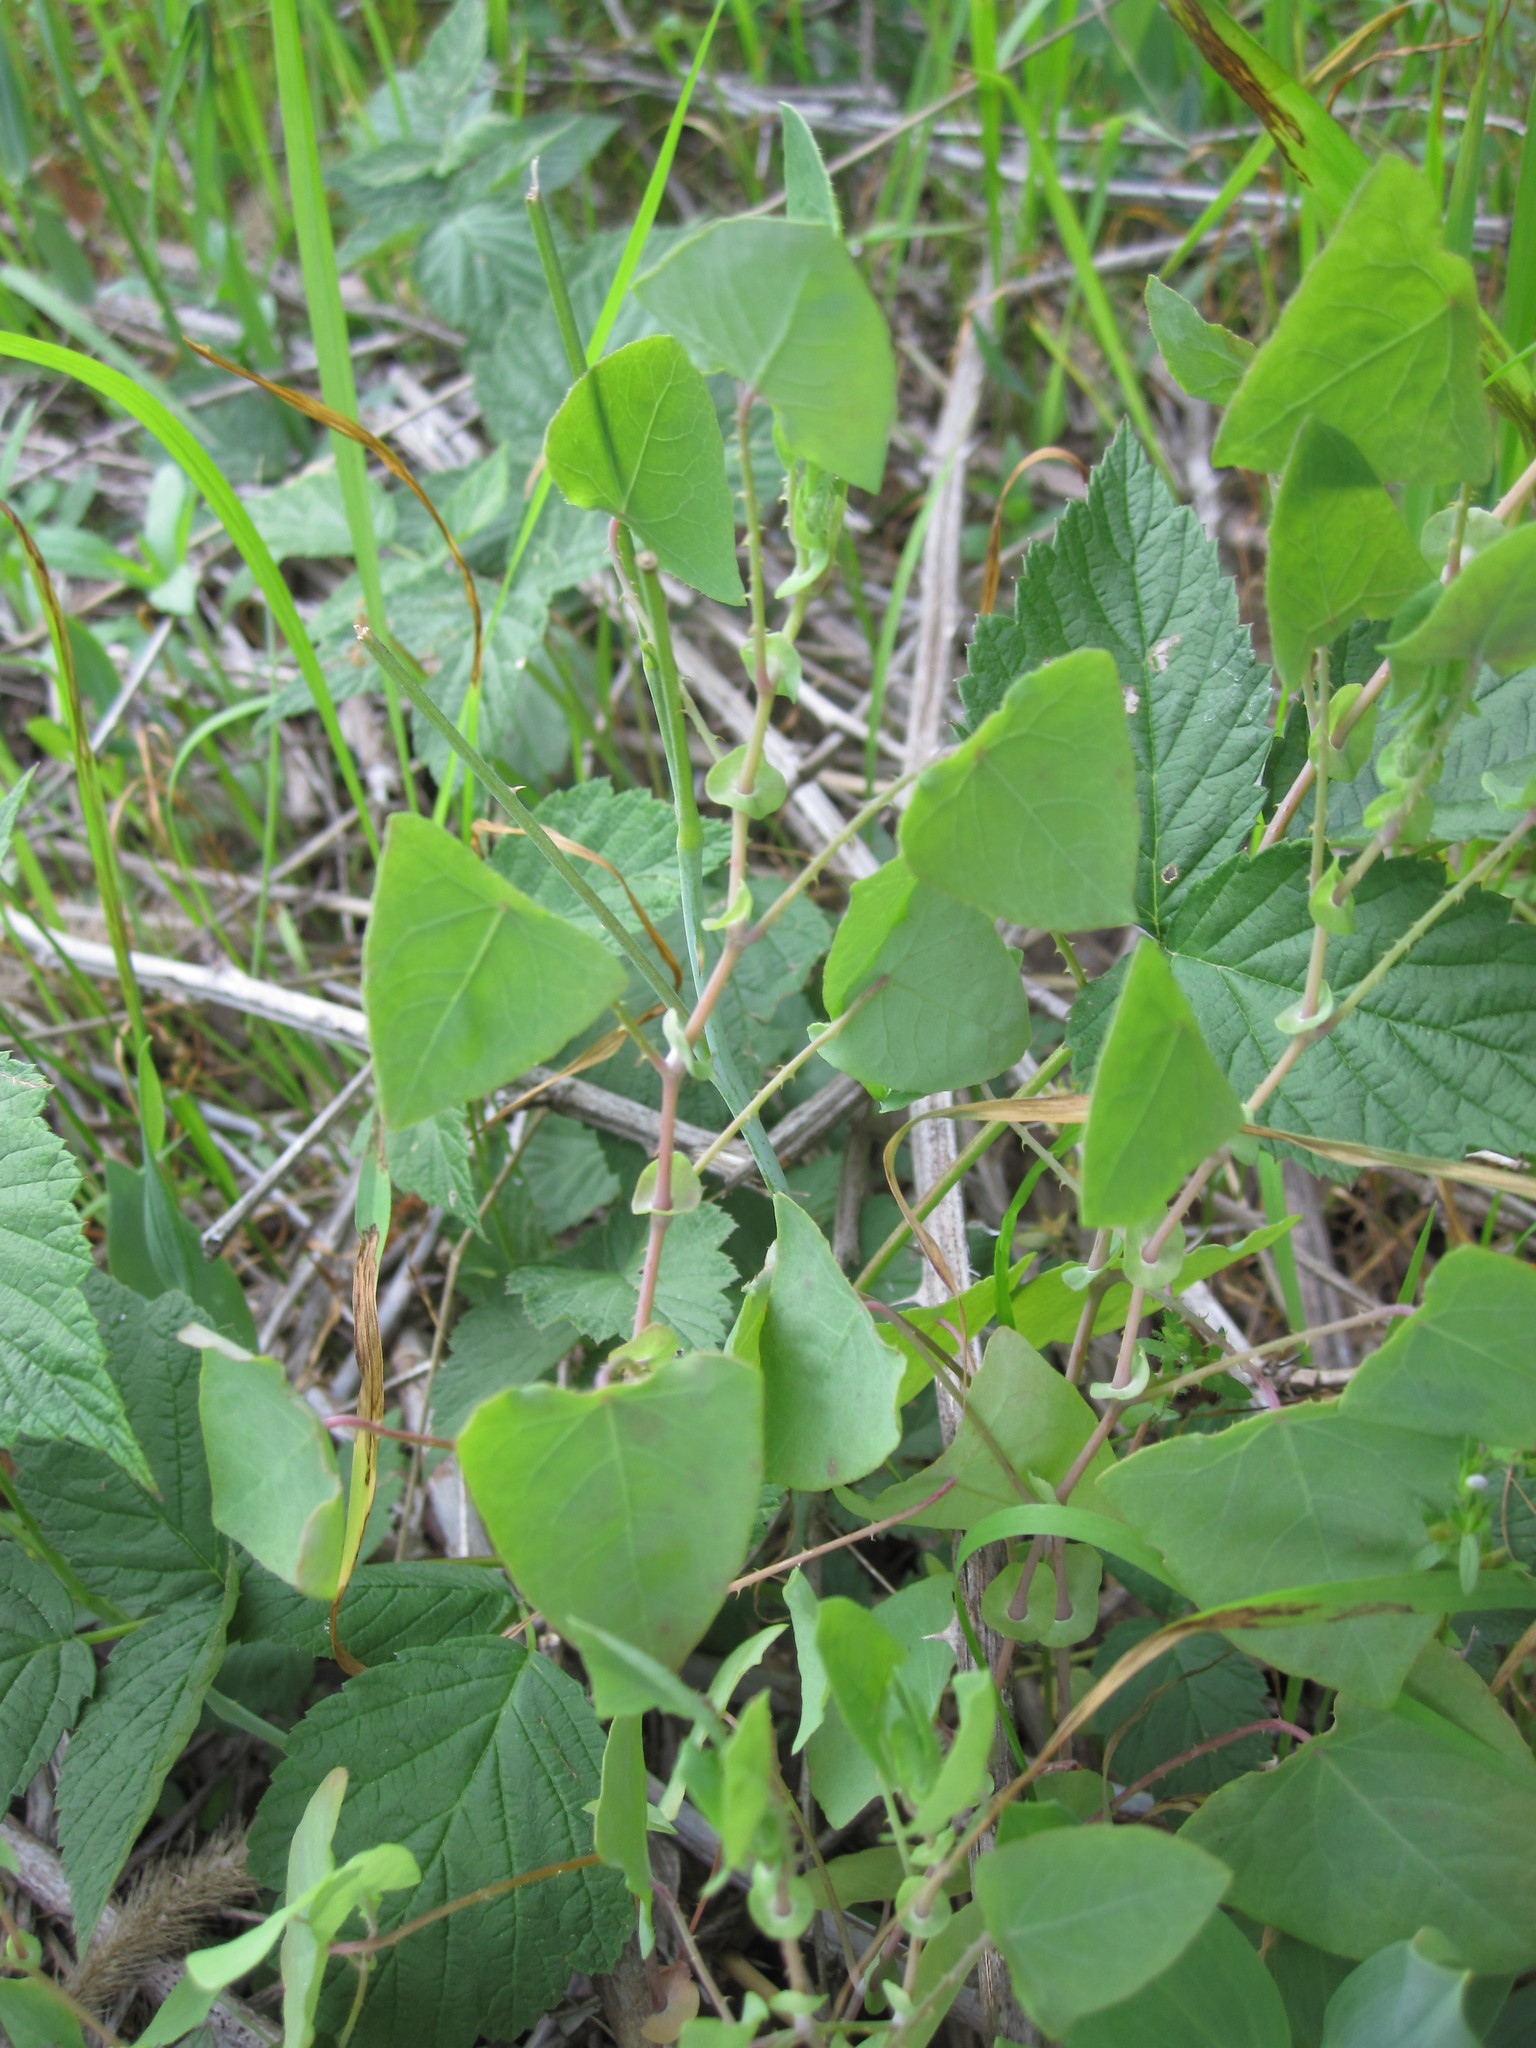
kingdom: Plantae
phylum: Tracheophyta
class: Magnoliopsida
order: Caryophyllales
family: Polygonaceae
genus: Persicaria
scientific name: Persicaria perfoliata
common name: Asiatic tearthumb
